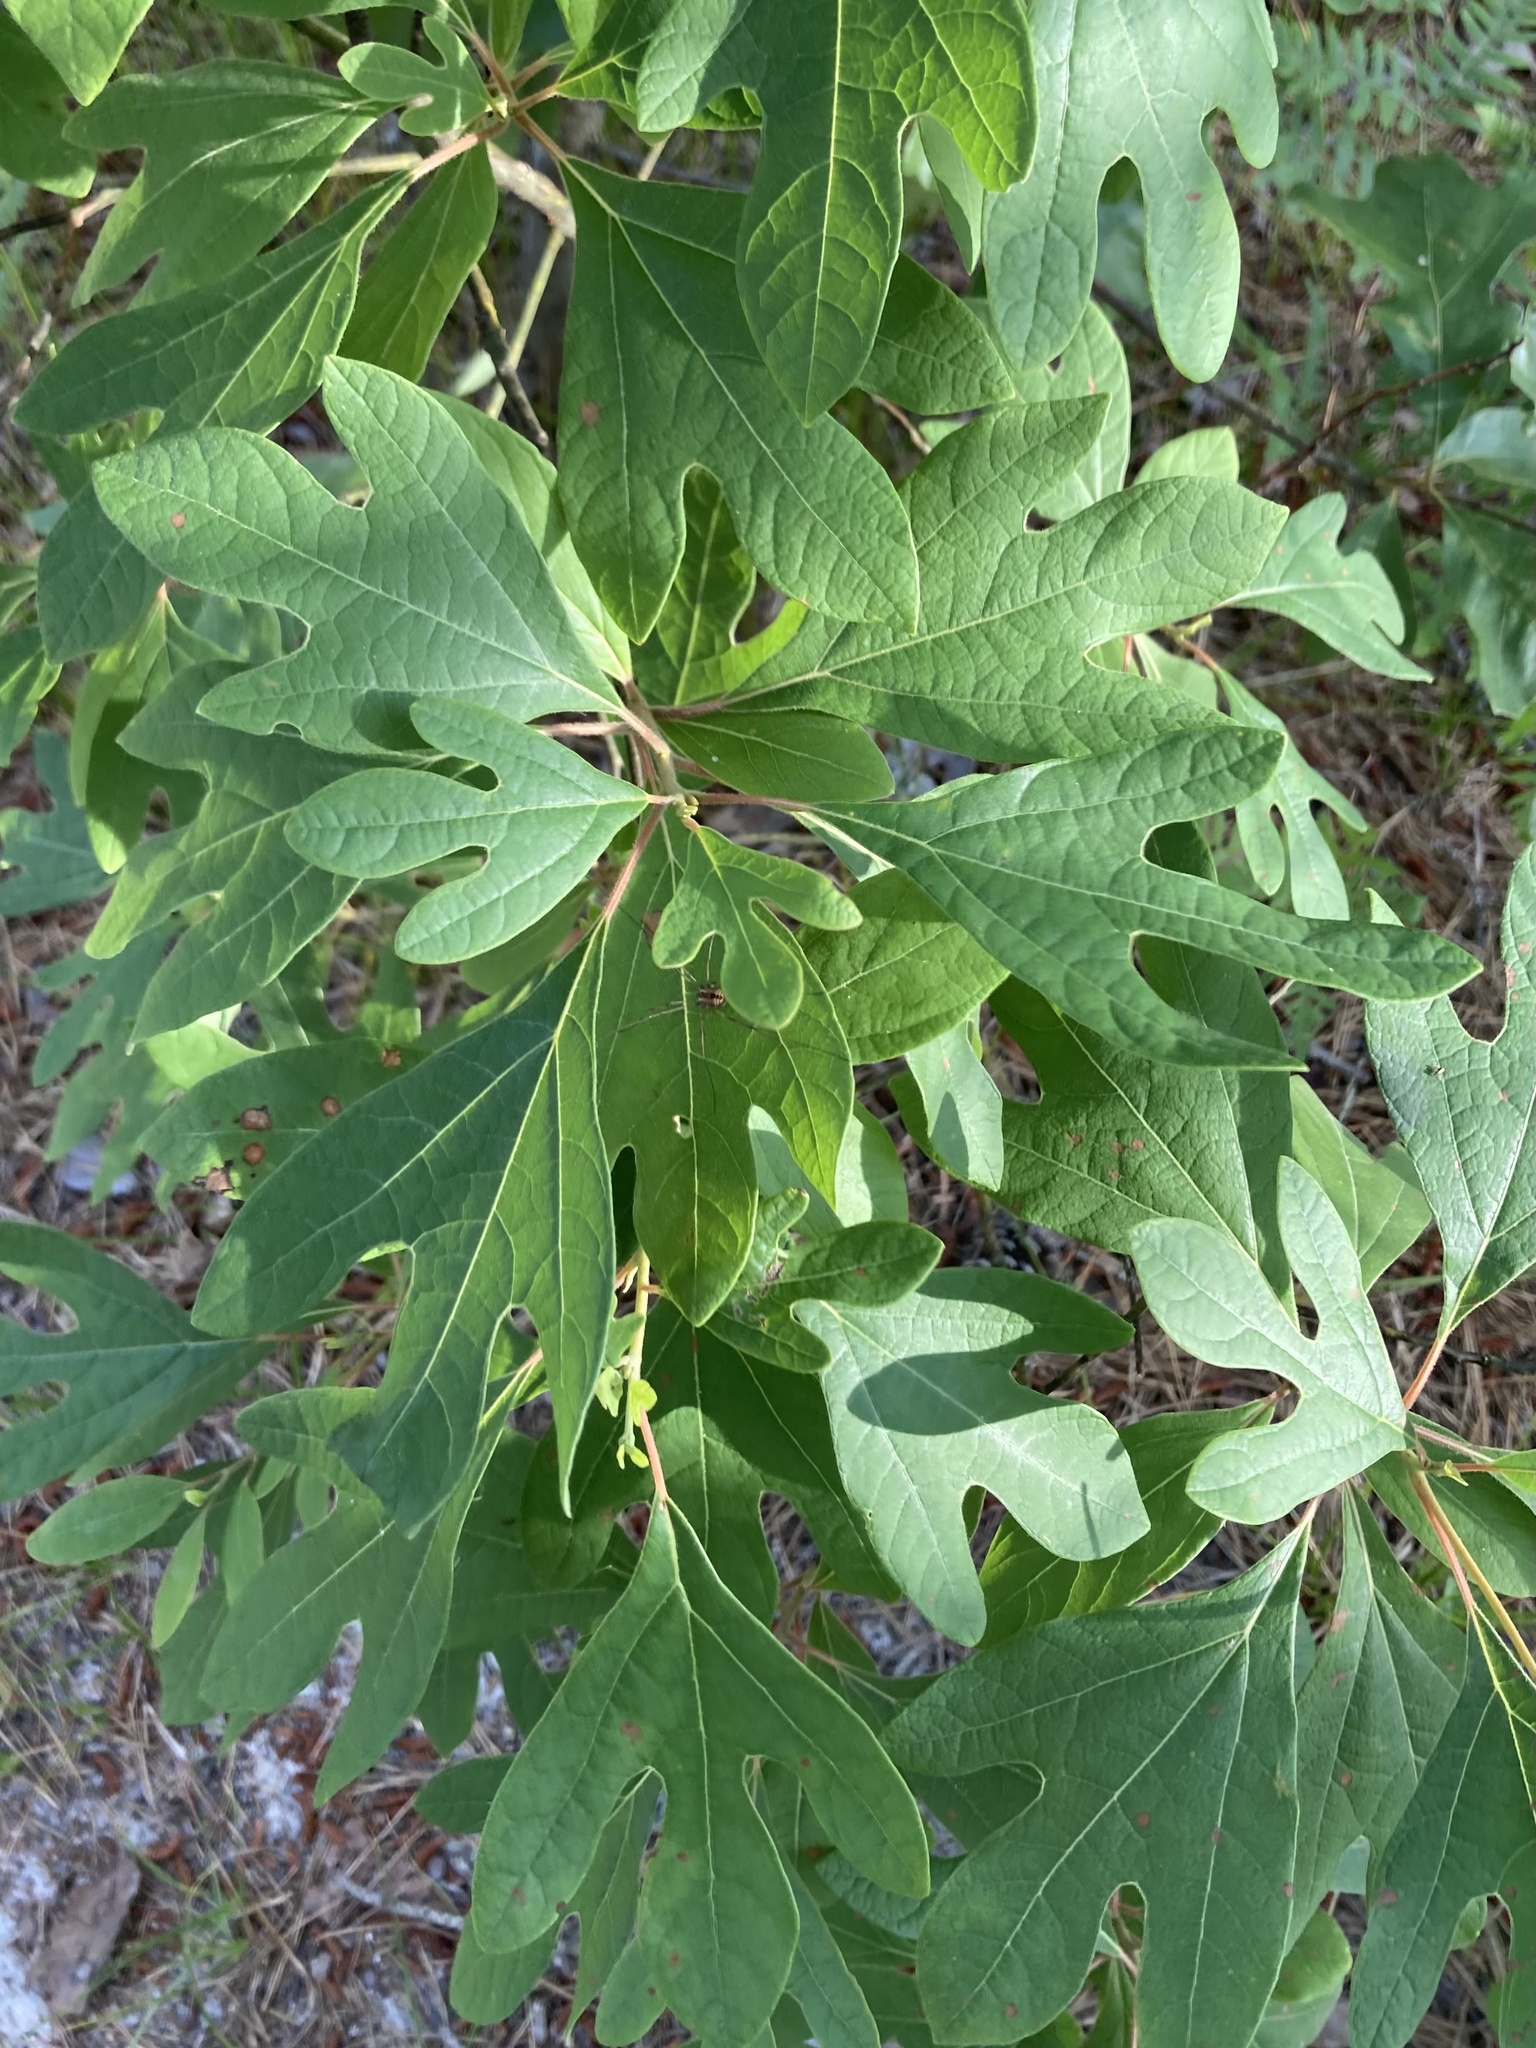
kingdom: Plantae
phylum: Tracheophyta
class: Magnoliopsida
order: Laurales
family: Lauraceae
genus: Sassafras
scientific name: Sassafras albidum
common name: Sassafras
